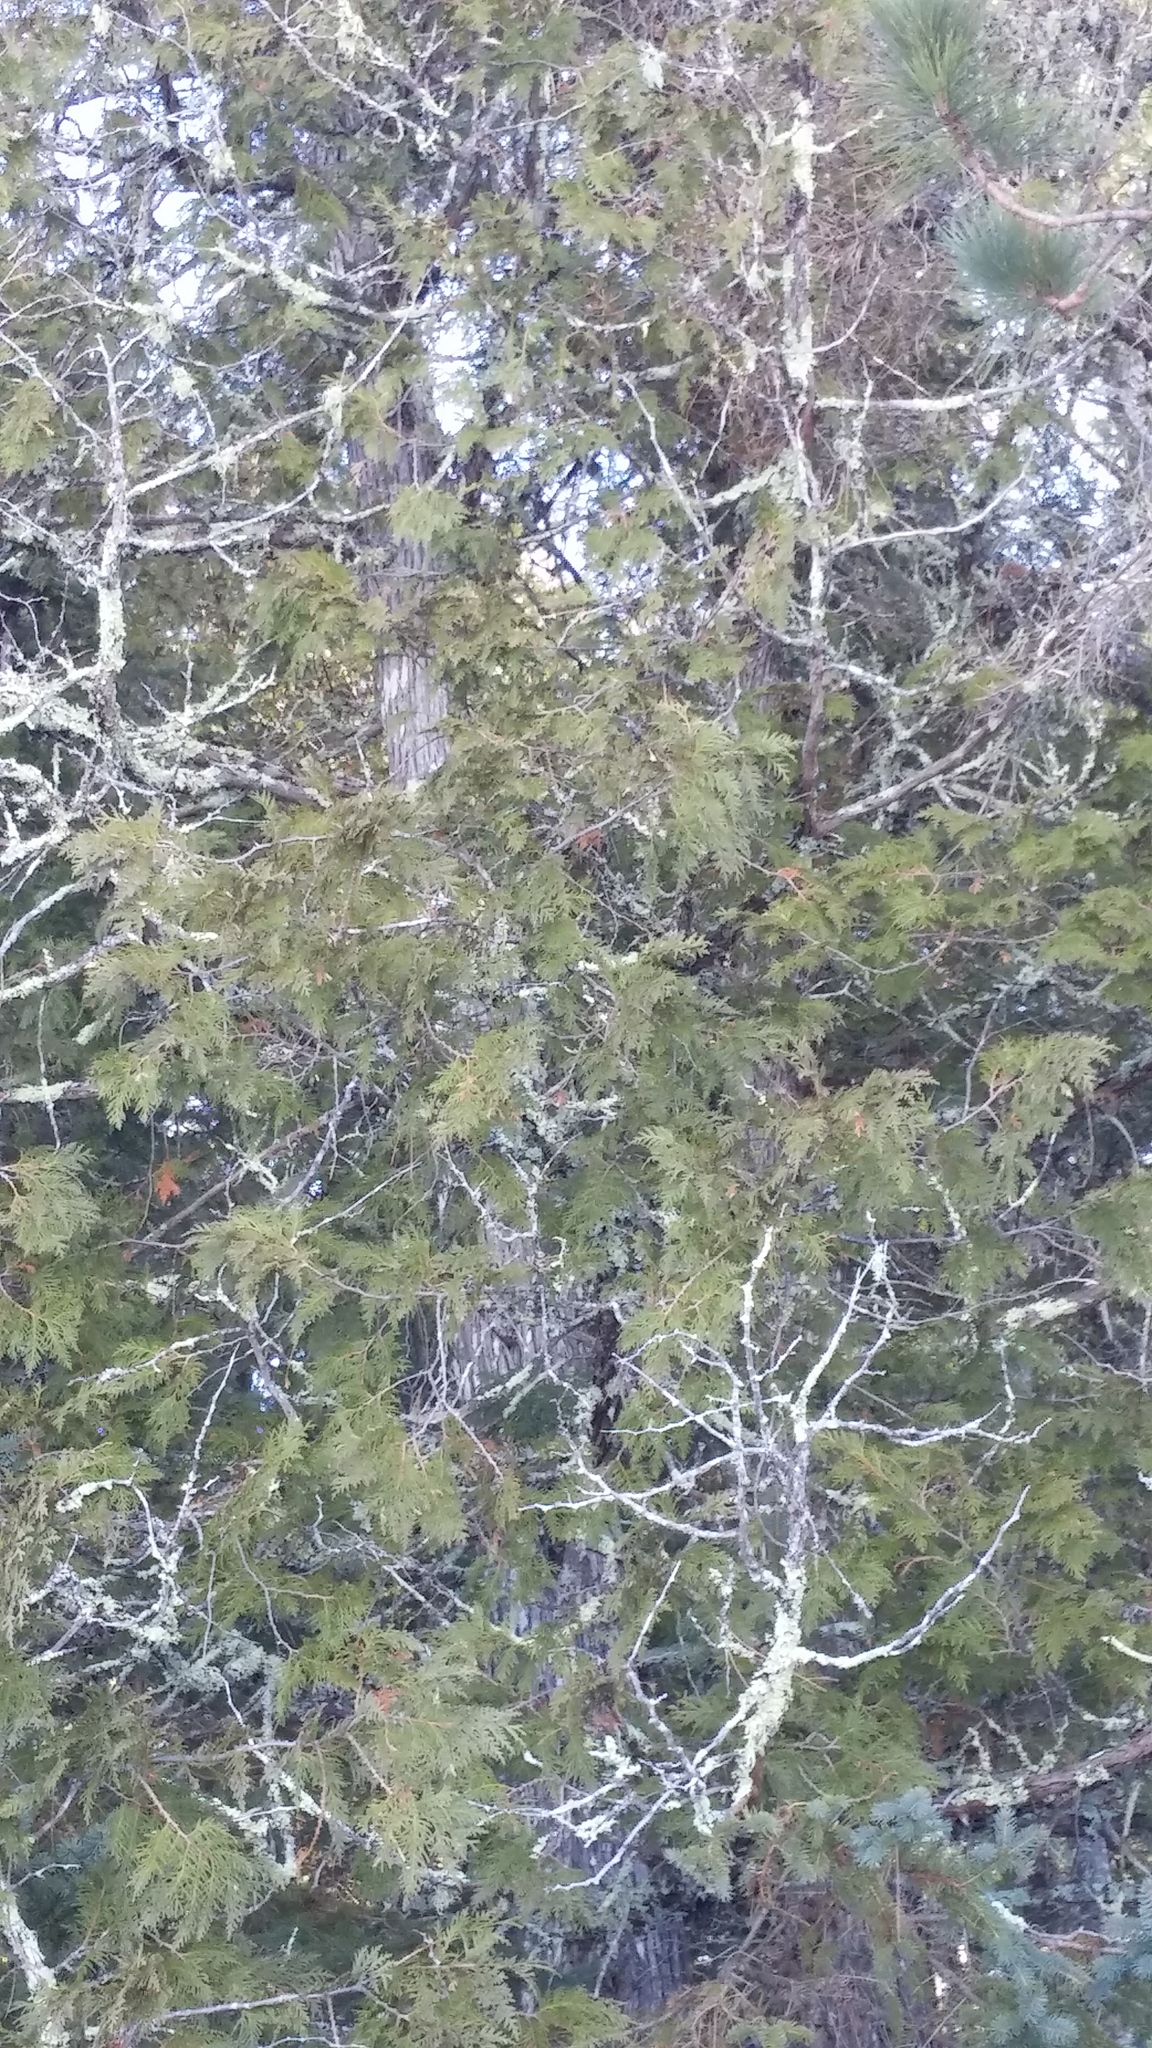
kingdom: Plantae
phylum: Tracheophyta
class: Pinopsida
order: Pinales
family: Cupressaceae
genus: Thuja
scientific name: Thuja occidentalis
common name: Northern white-cedar
